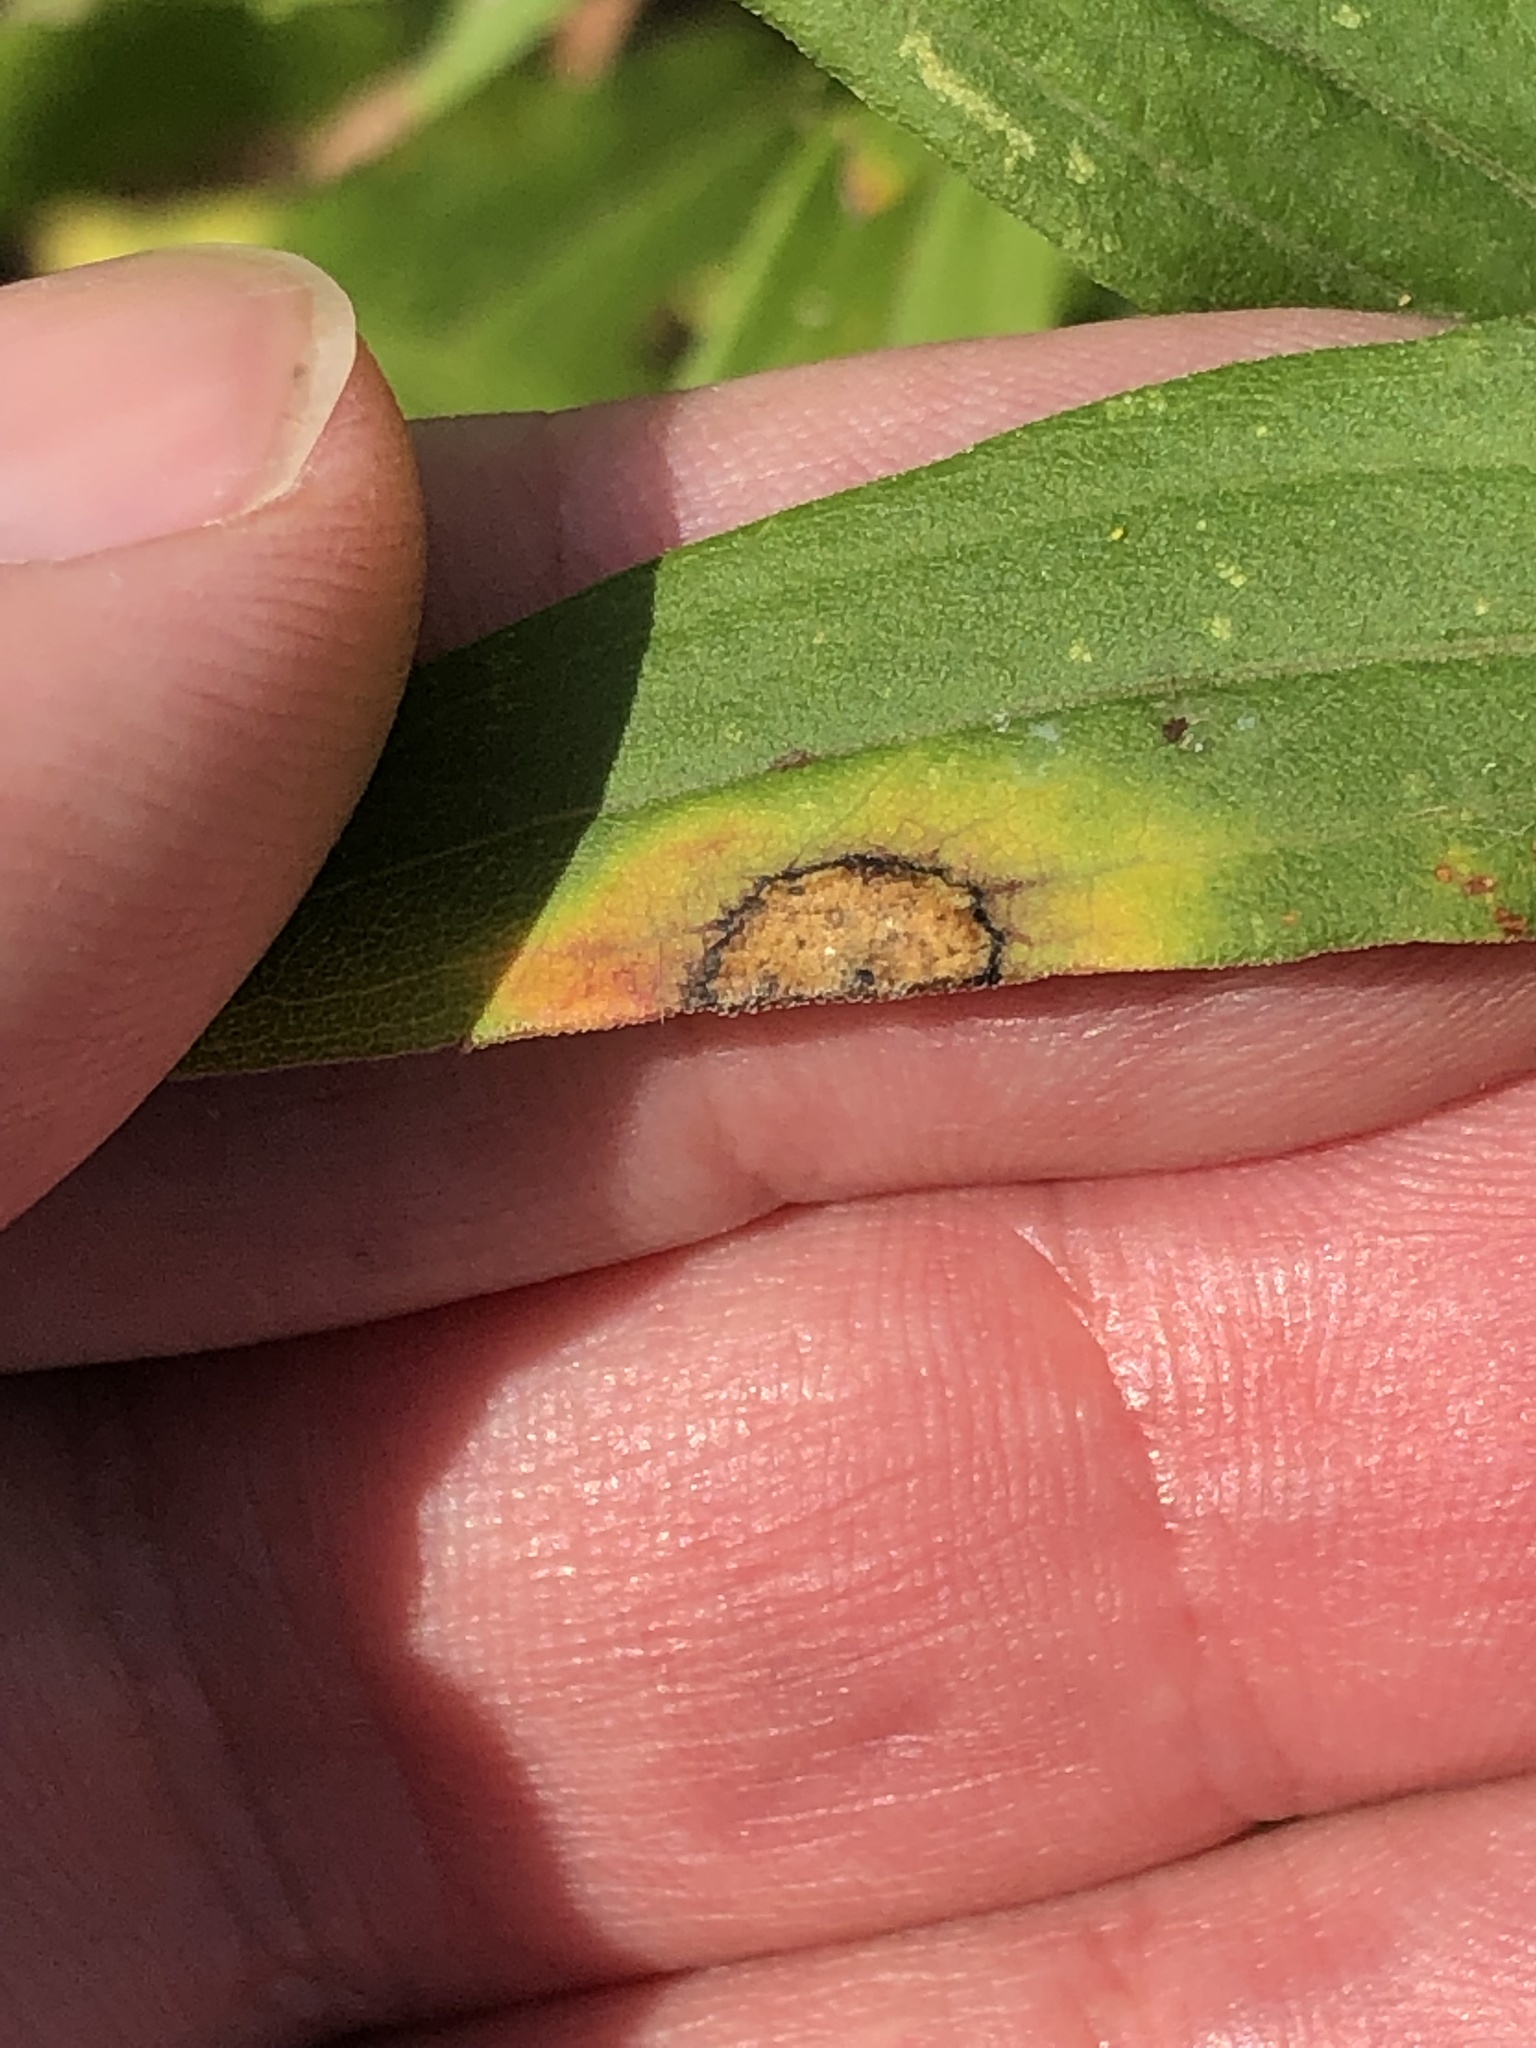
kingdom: Animalia
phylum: Arthropoda
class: Insecta
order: Diptera
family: Cecidomyiidae
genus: Asteromyia
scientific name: Asteromyia carbonifera
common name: Carbonifera goldenrod gall midge
